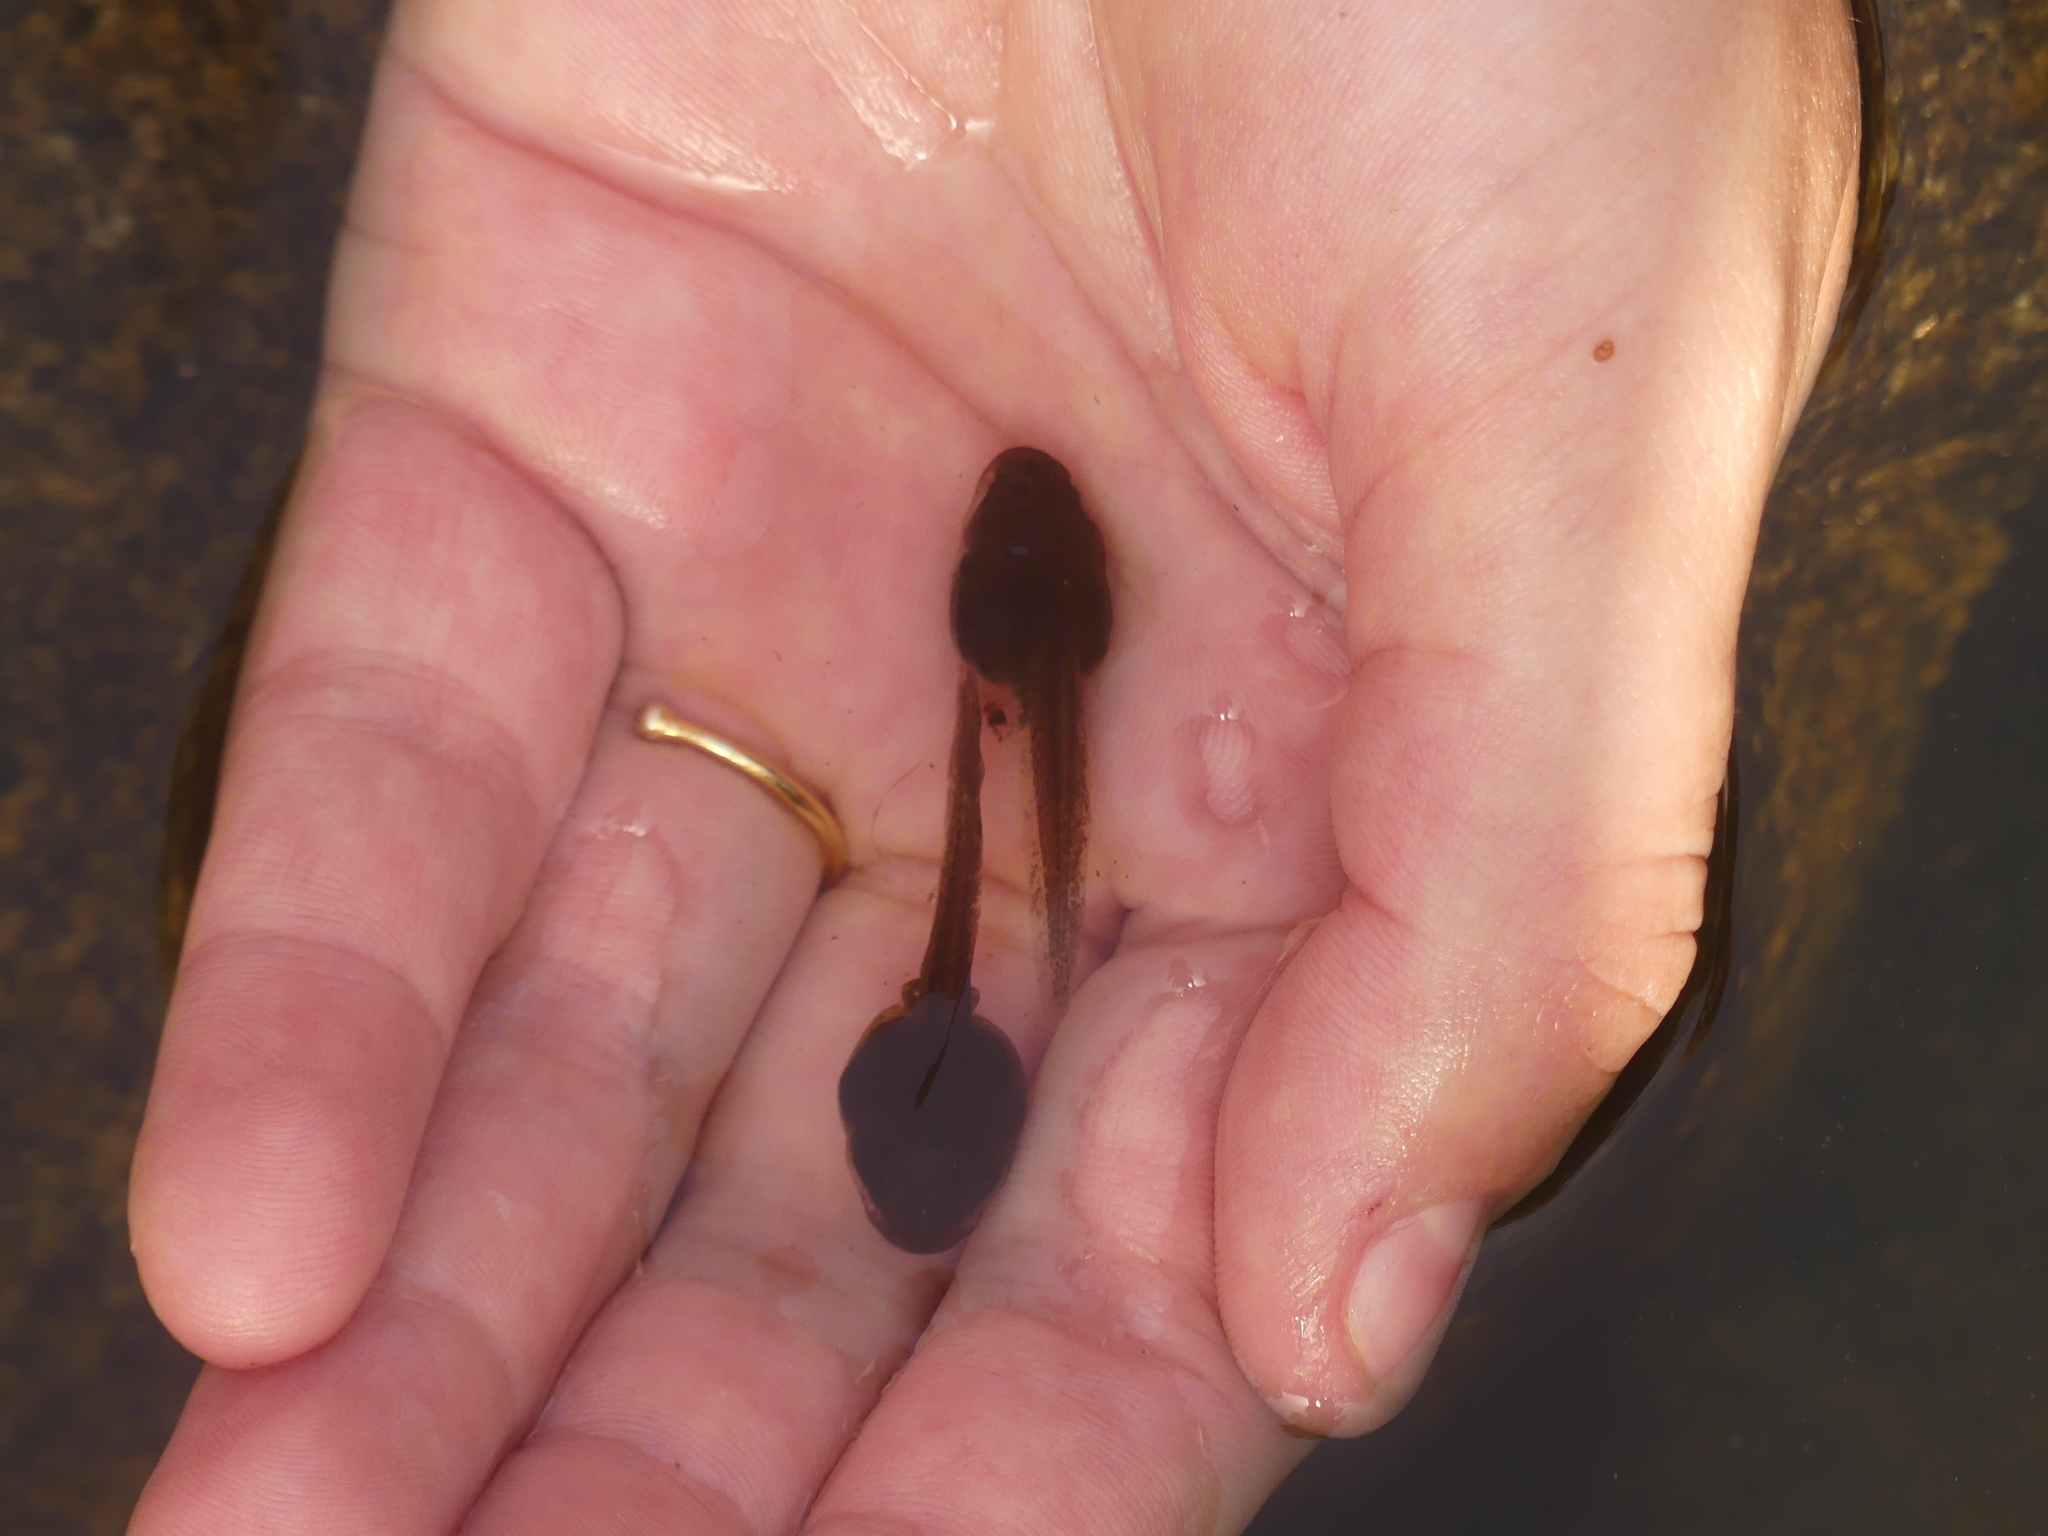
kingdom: Animalia
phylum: Chordata
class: Amphibia
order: Anura
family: Alytidae
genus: Discoglossus
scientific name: Discoglossus sardus
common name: Sardinia painted frog
